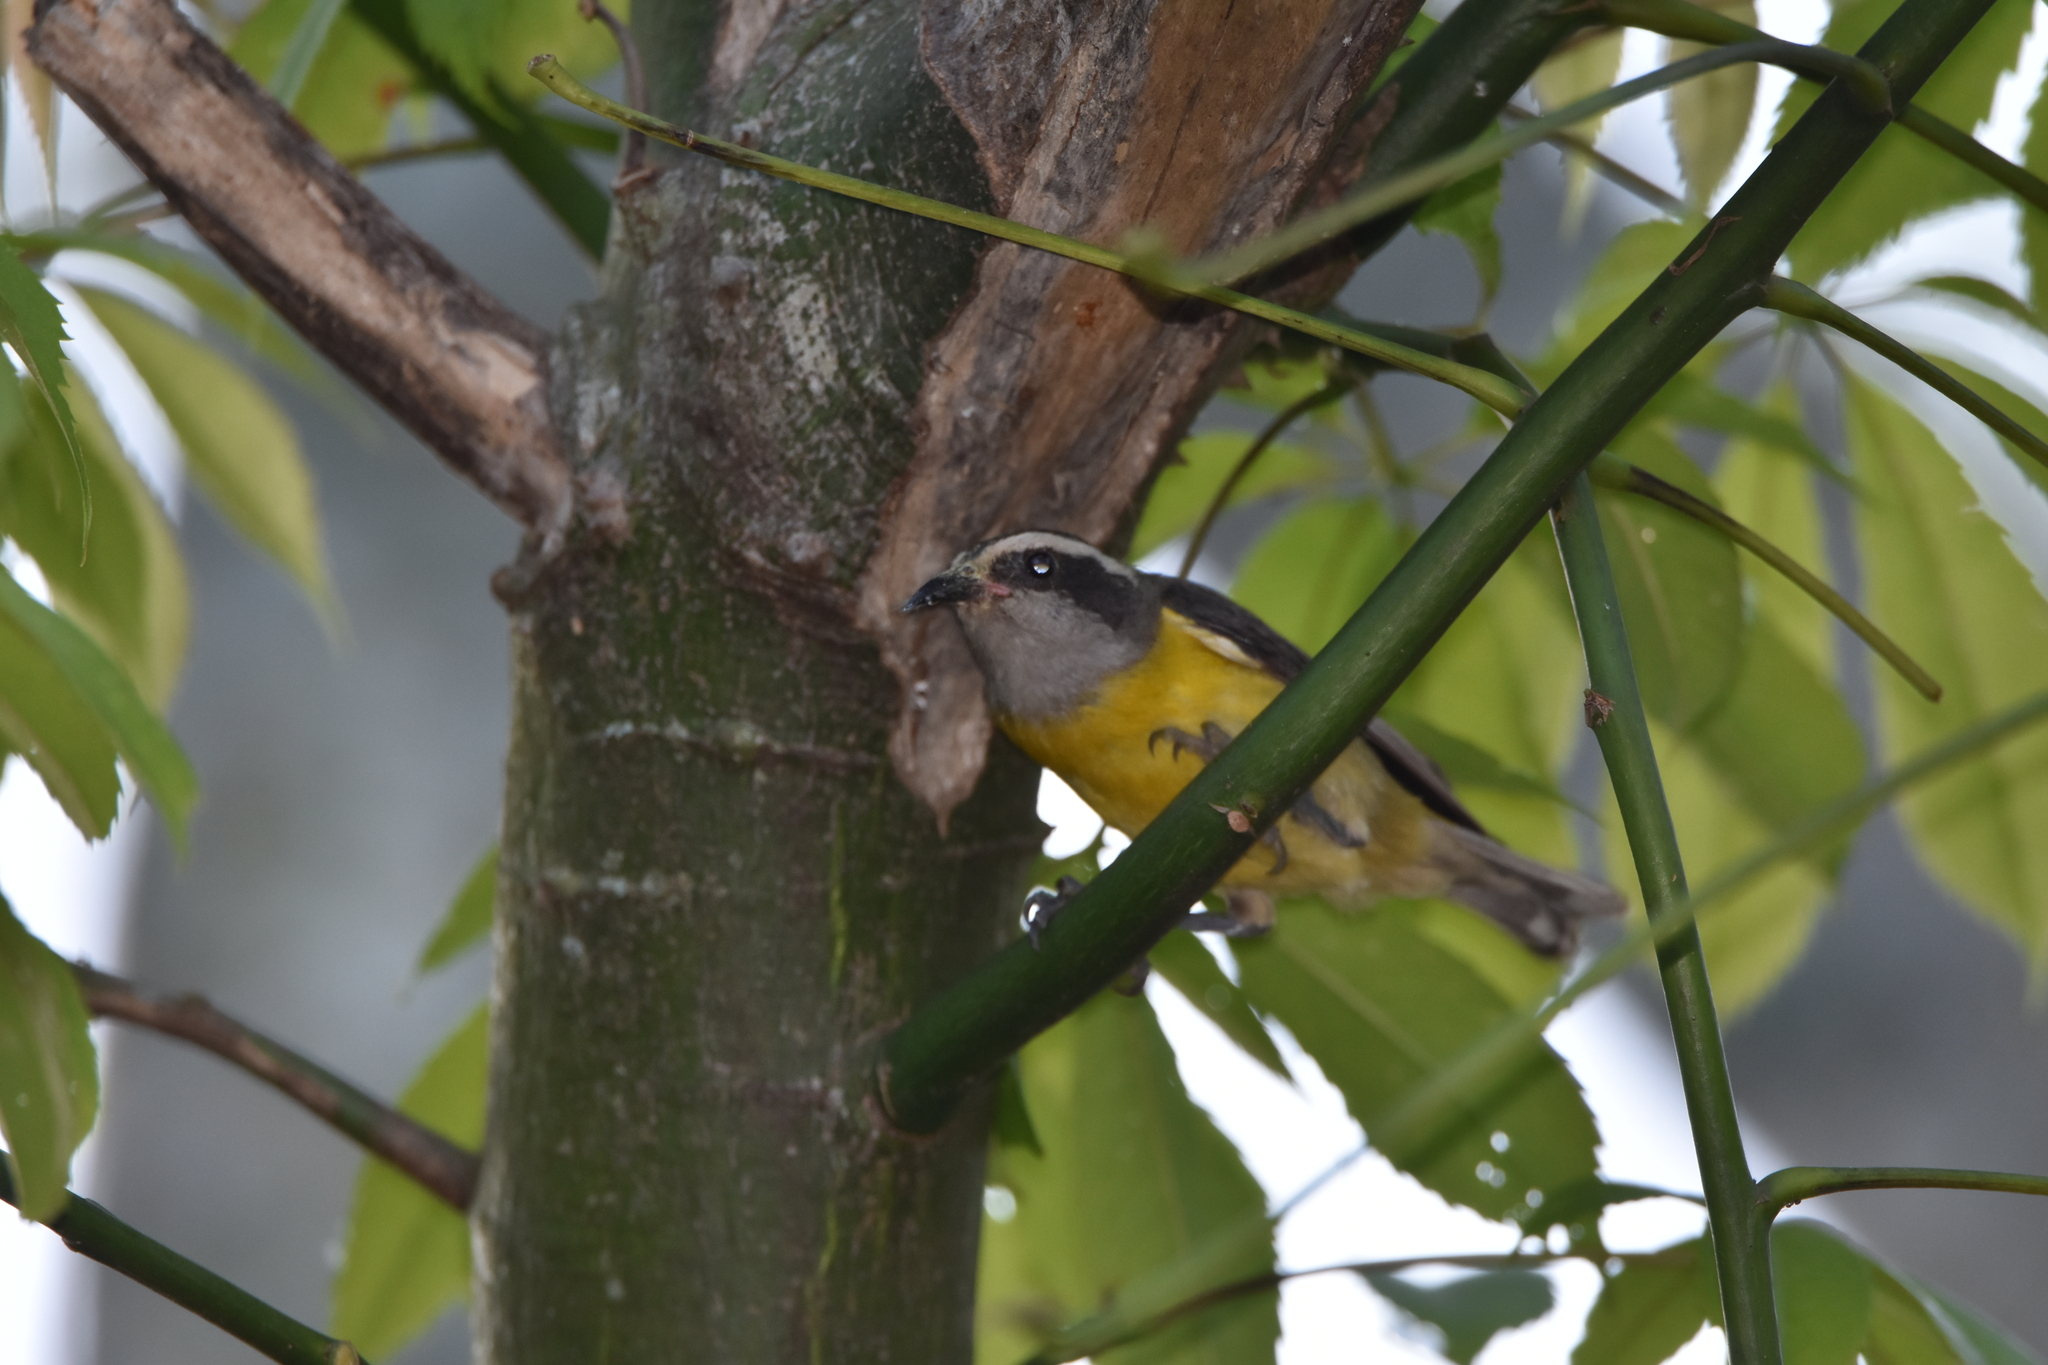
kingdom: Animalia
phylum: Chordata
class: Aves
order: Passeriformes
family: Thraupidae
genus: Coereba
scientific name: Coereba flaveola
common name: Bananaquit
